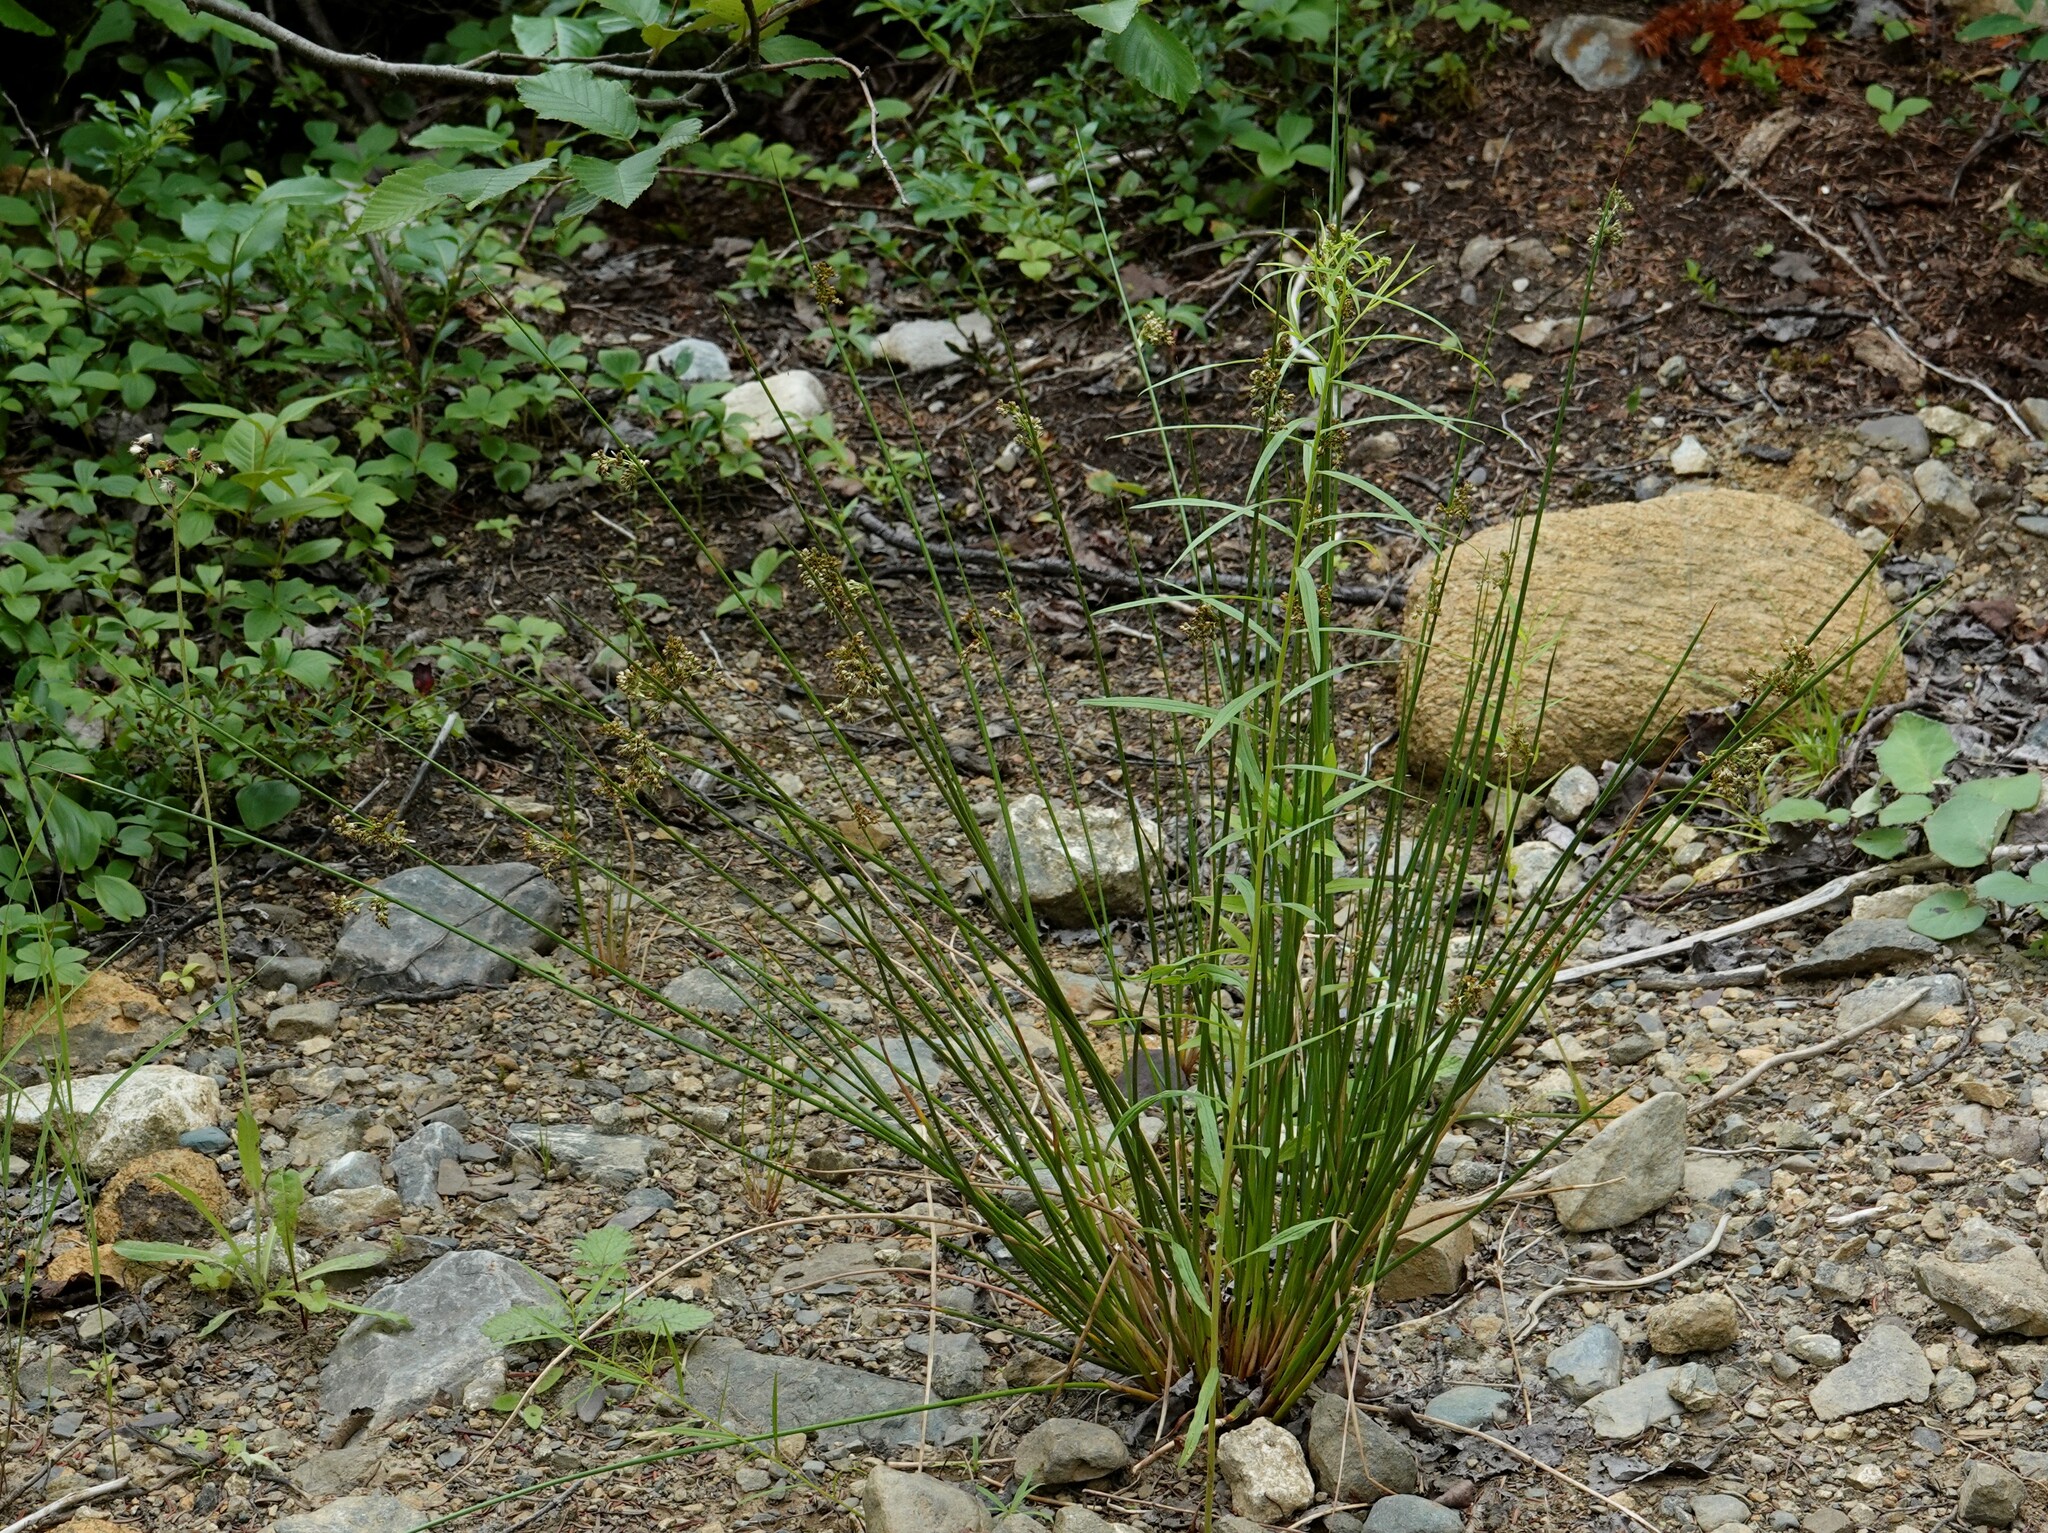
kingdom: Plantae
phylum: Tracheophyta
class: Liliopsida
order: Poales
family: Juncaceae
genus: Juncus
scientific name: Juncus effusus
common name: Soft rush
